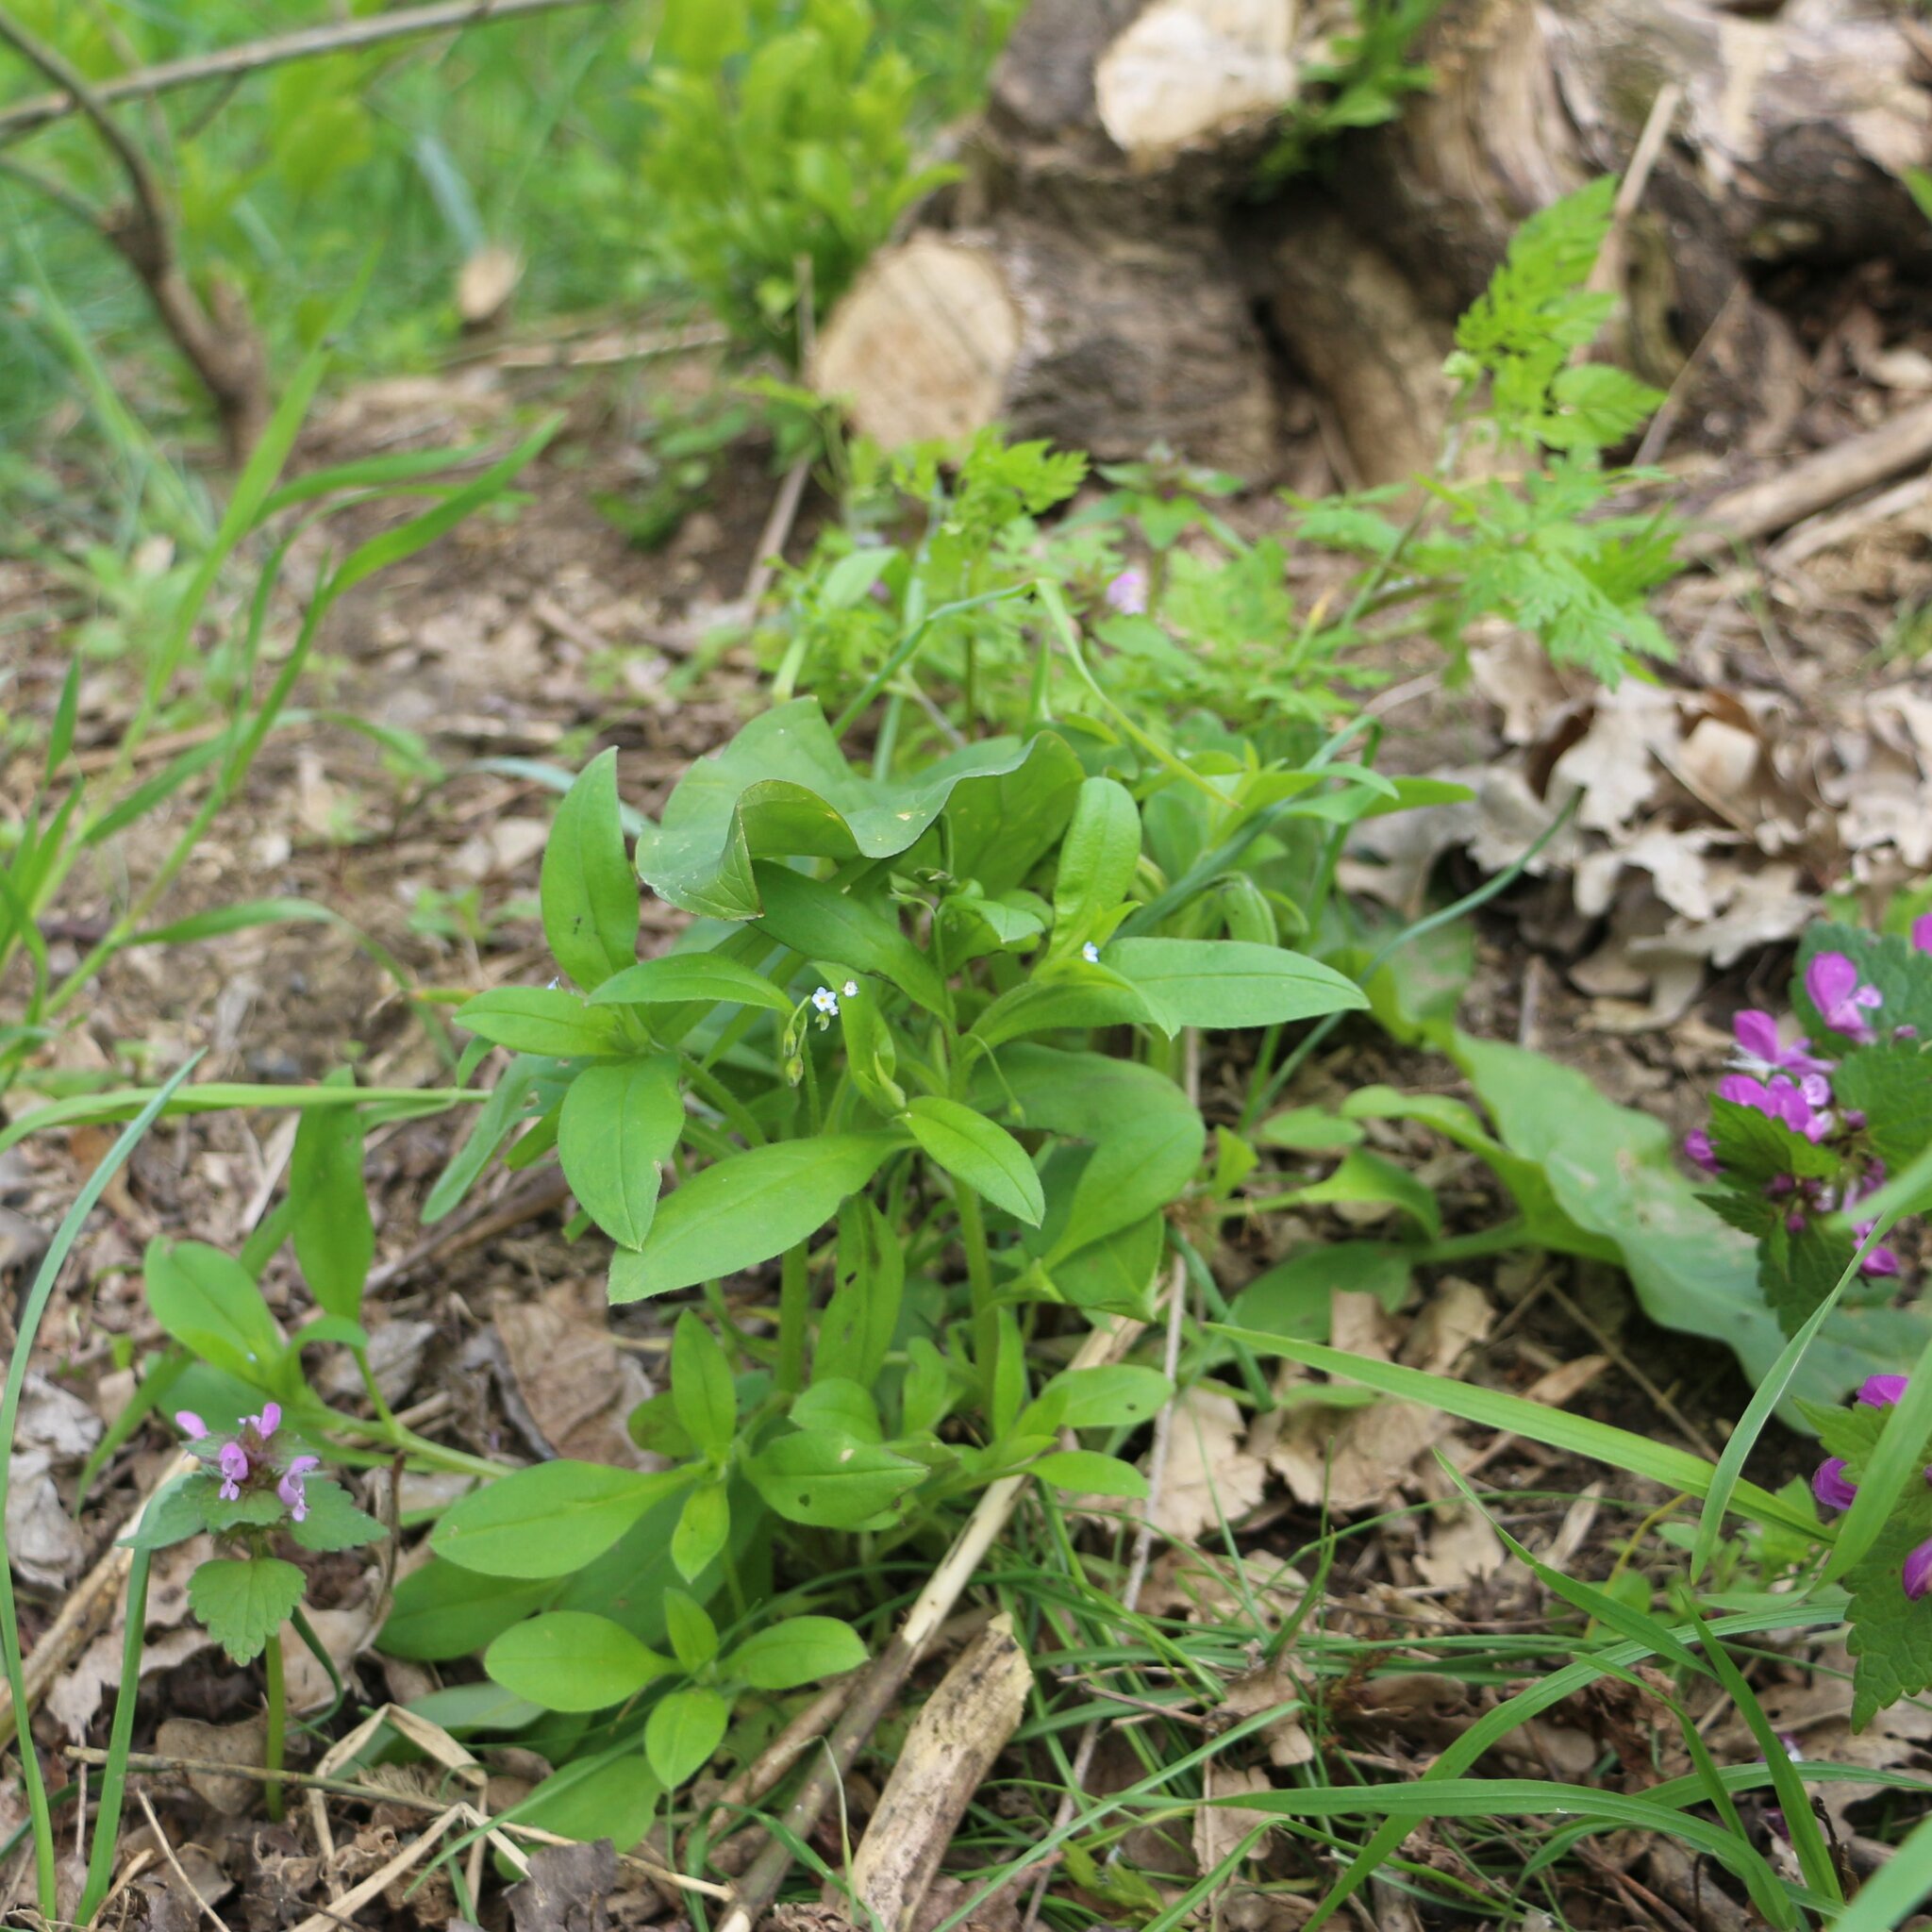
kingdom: Plantae
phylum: Tracheophyta
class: Magnoliopsida
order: Brassicales
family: Brassicaceae
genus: Alliaria
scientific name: Alliaria petiolata
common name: Garlic mustard
